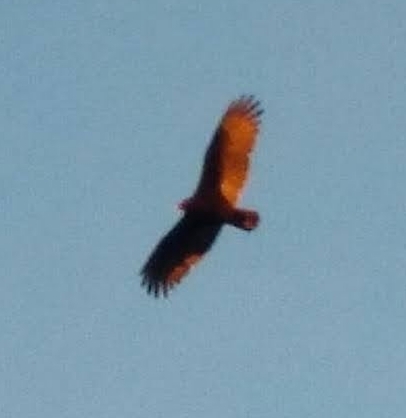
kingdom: Animalia
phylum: Chordata
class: Aves
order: Accipitriformes
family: Cathartidae
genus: Cathartes
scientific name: Cathartes aura
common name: Turkey vulture
